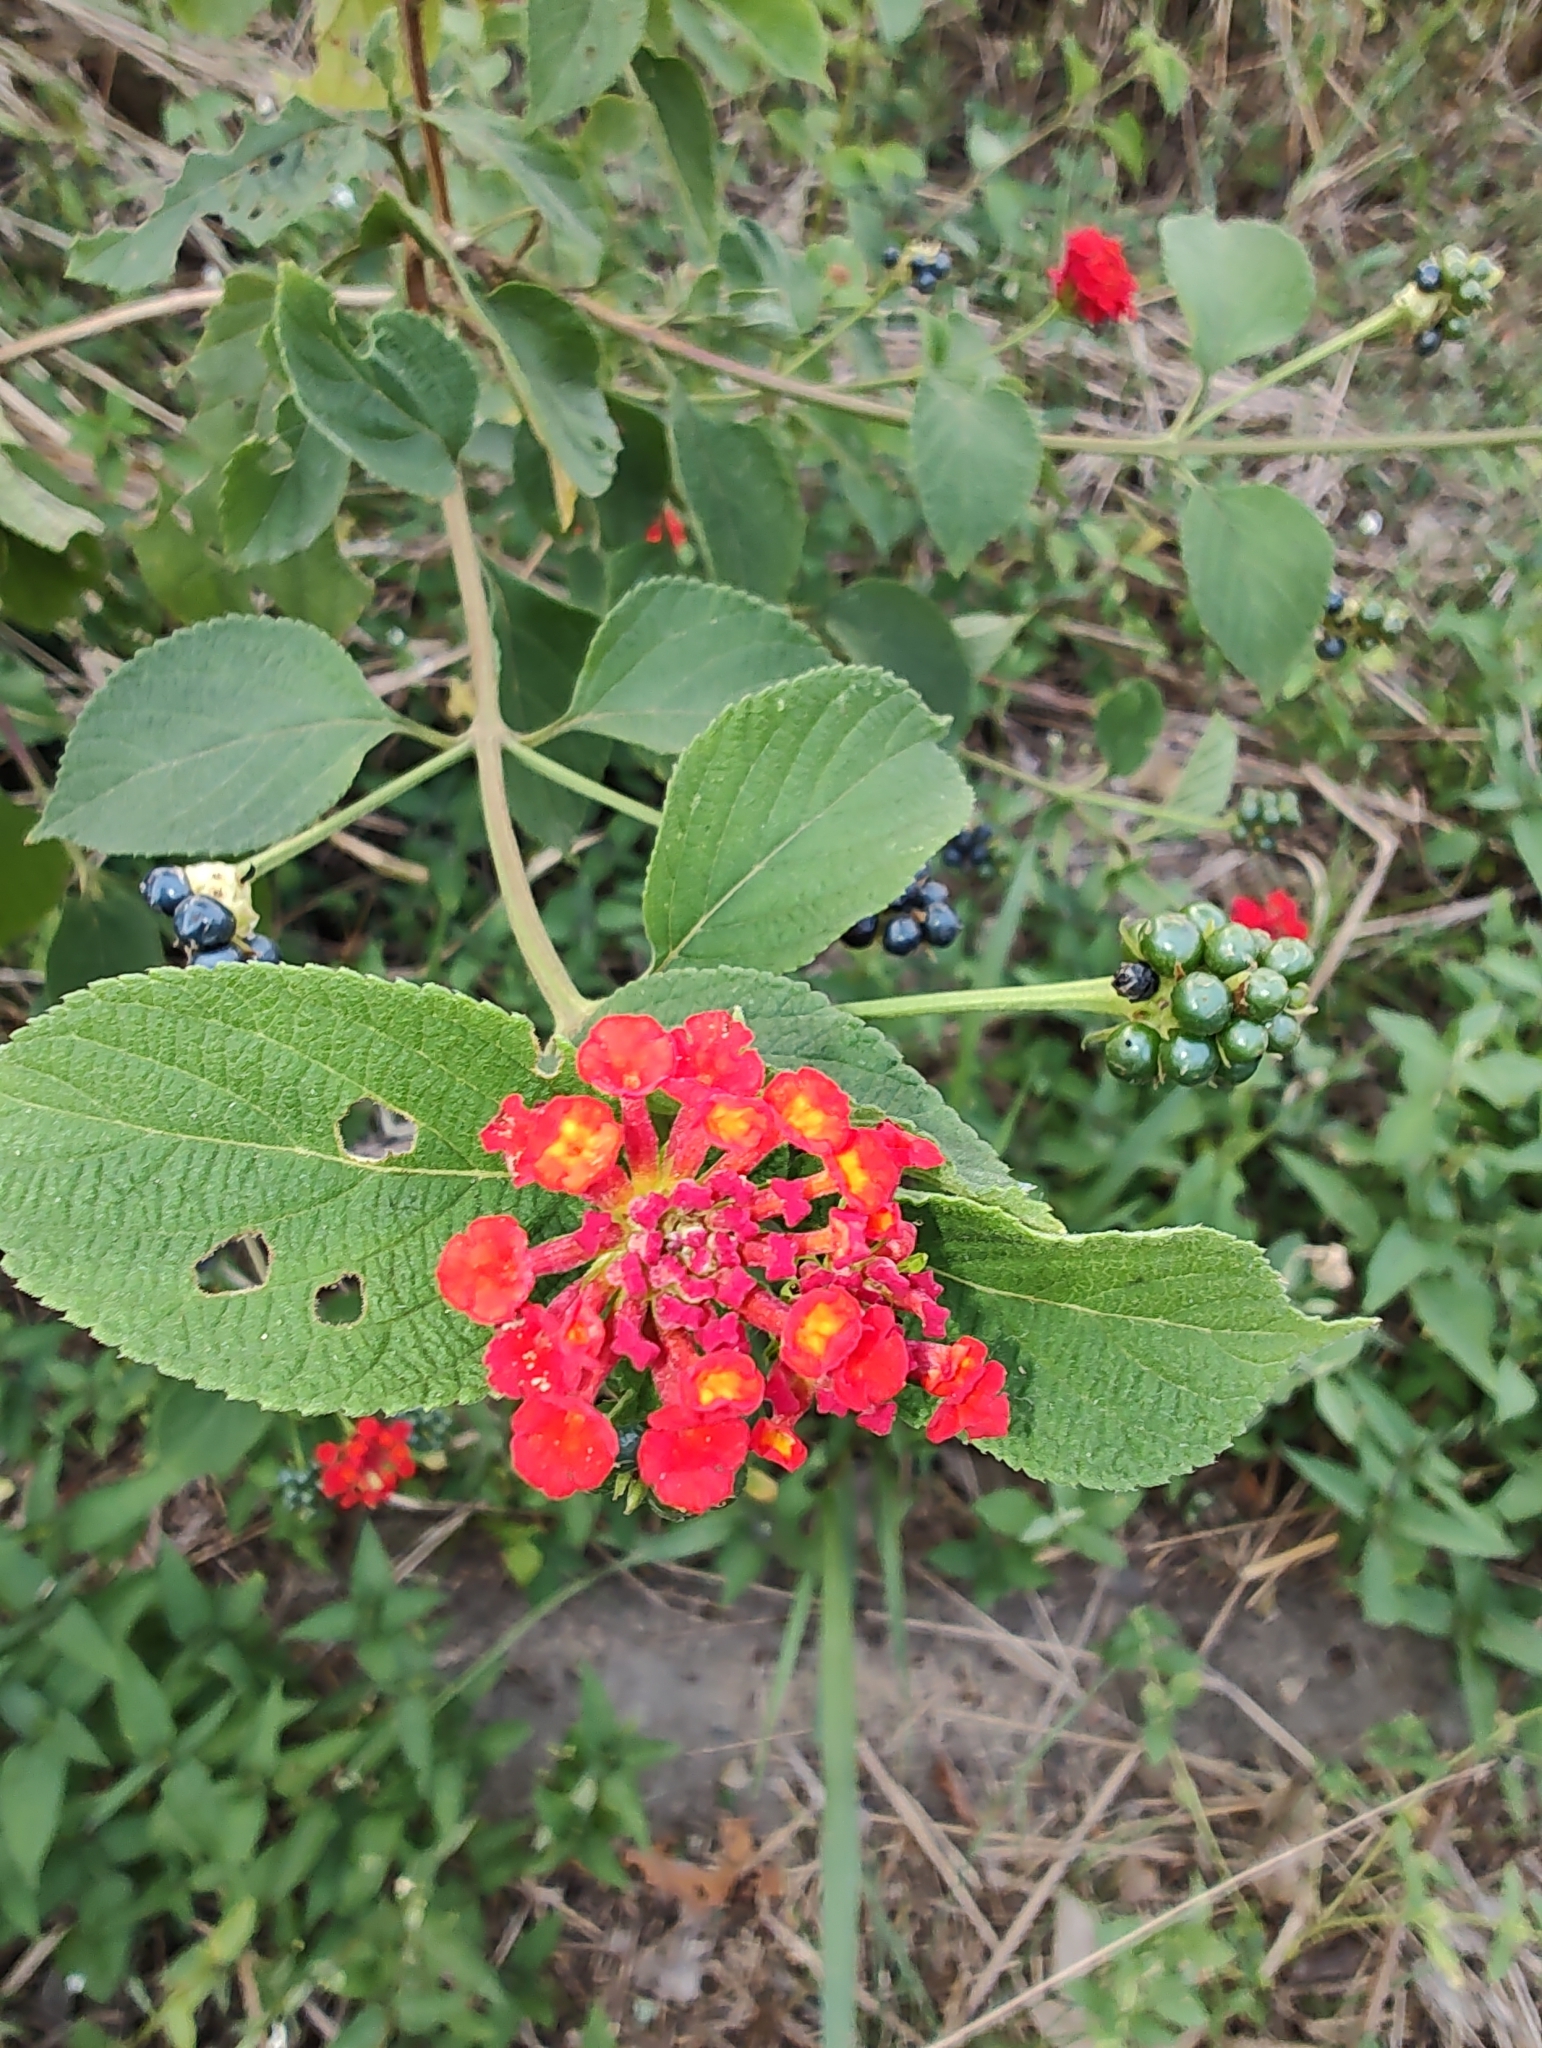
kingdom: Plantae
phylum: Tracheophyta
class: Magnoliopsida
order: Lamiales
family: Verbenaceae
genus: Lantana
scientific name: Lantana camara
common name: Lantana
